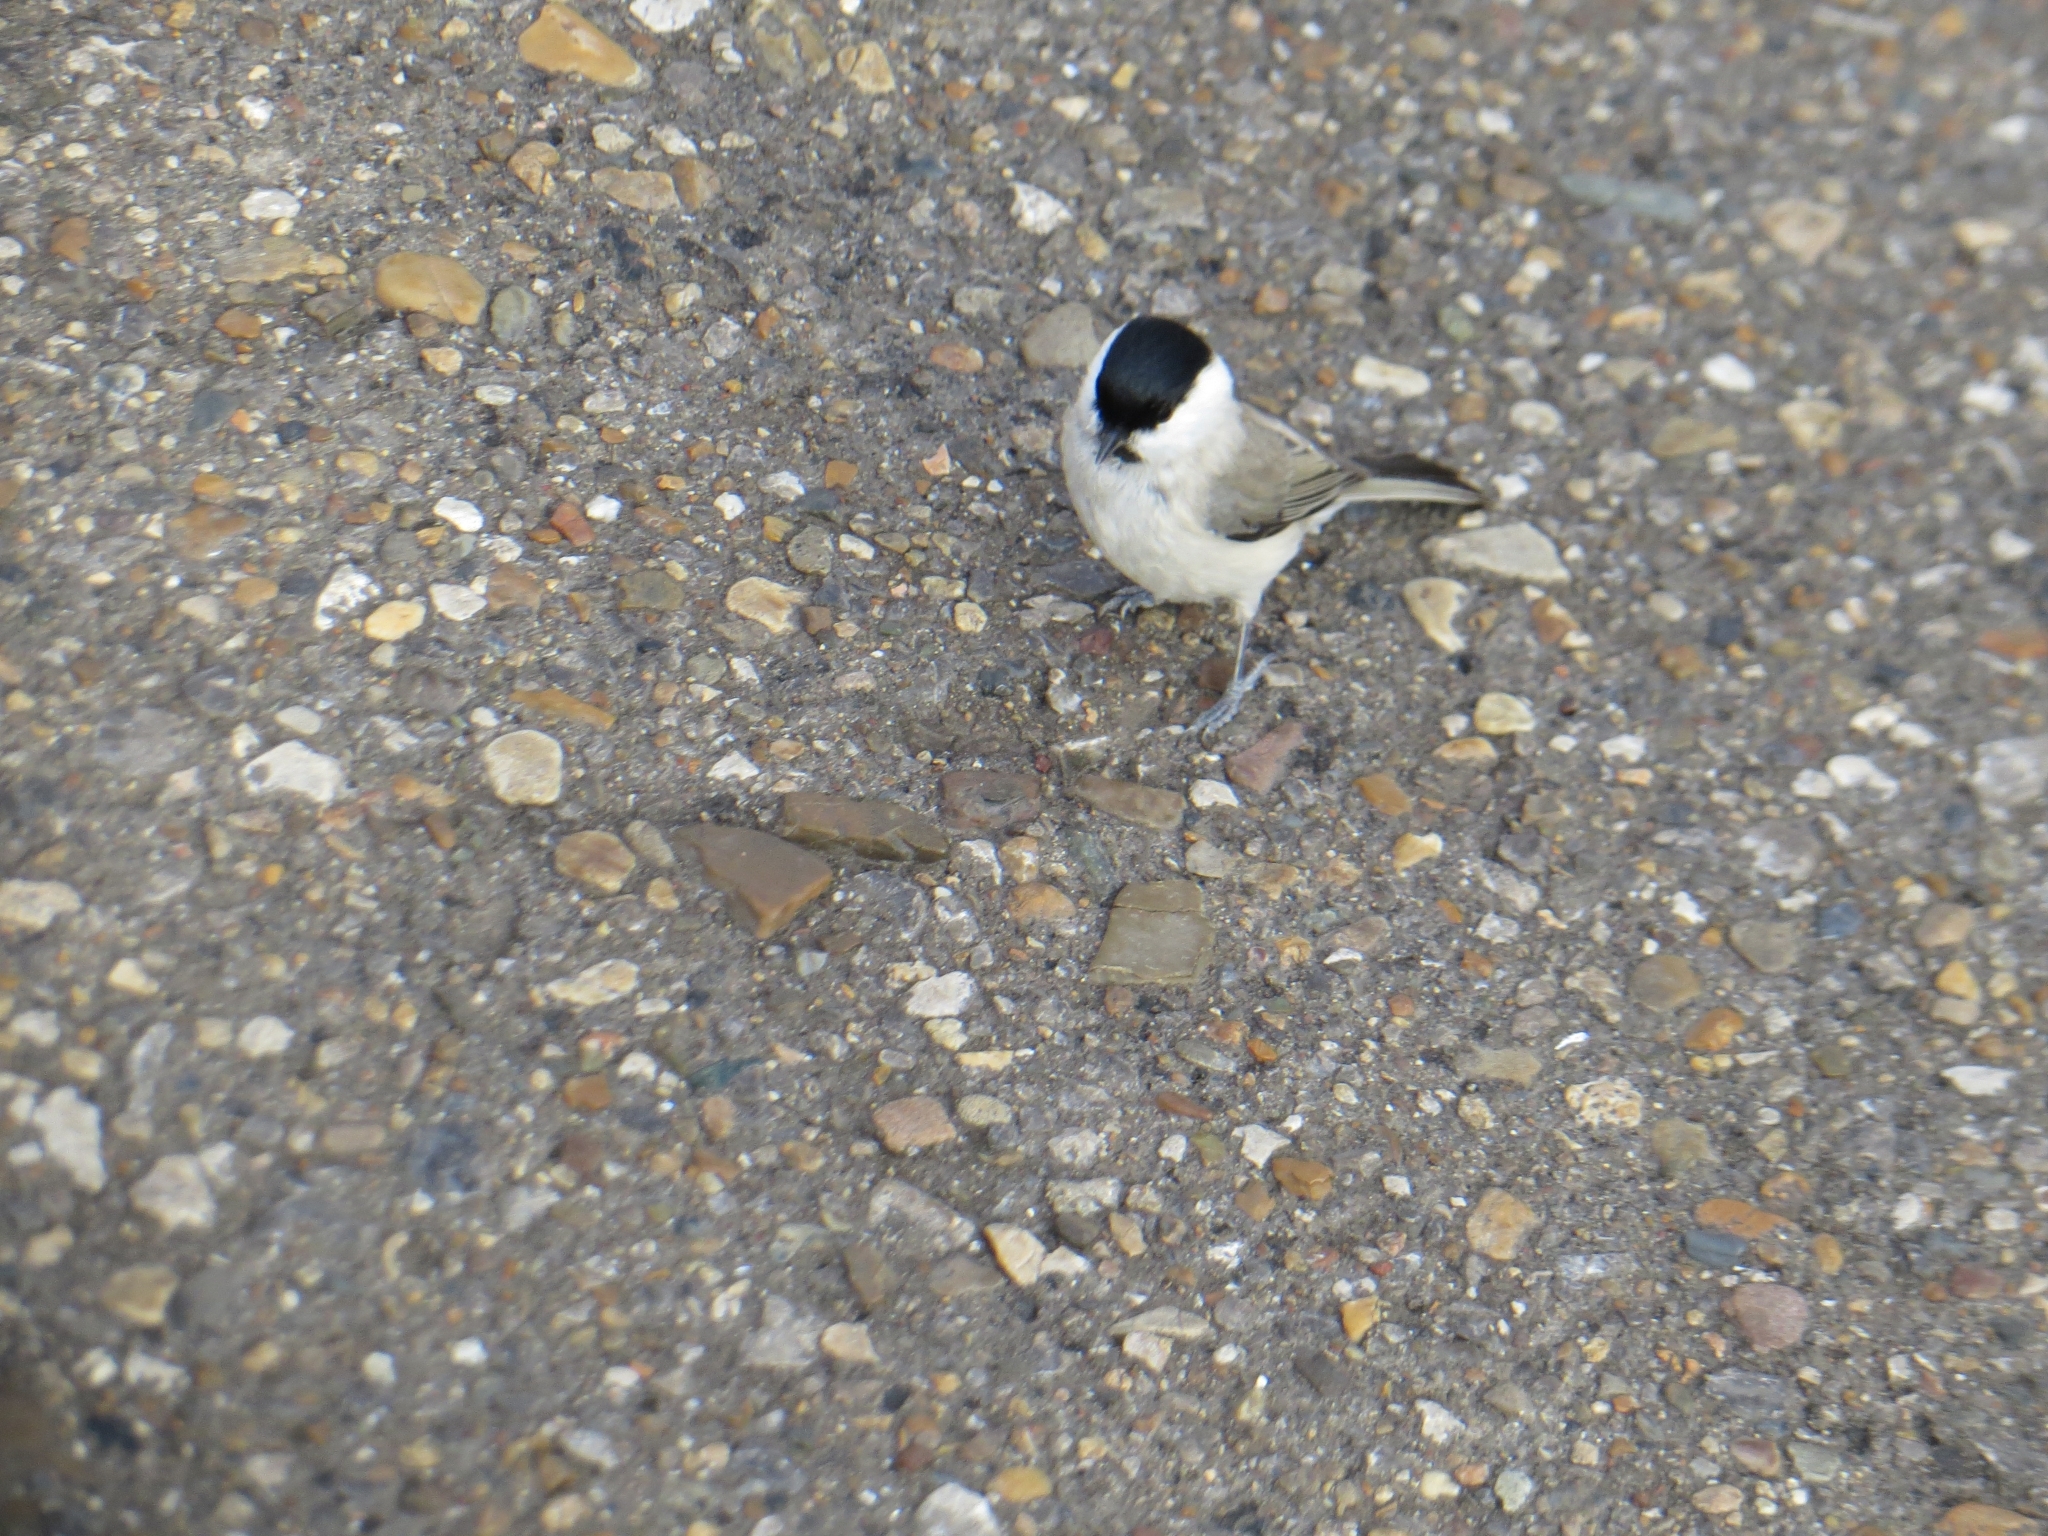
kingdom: Animalia
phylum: Chordata
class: Aves
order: Passeriformes
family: Paridae
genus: Poecile
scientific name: Poecile montanus
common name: Willow tit
